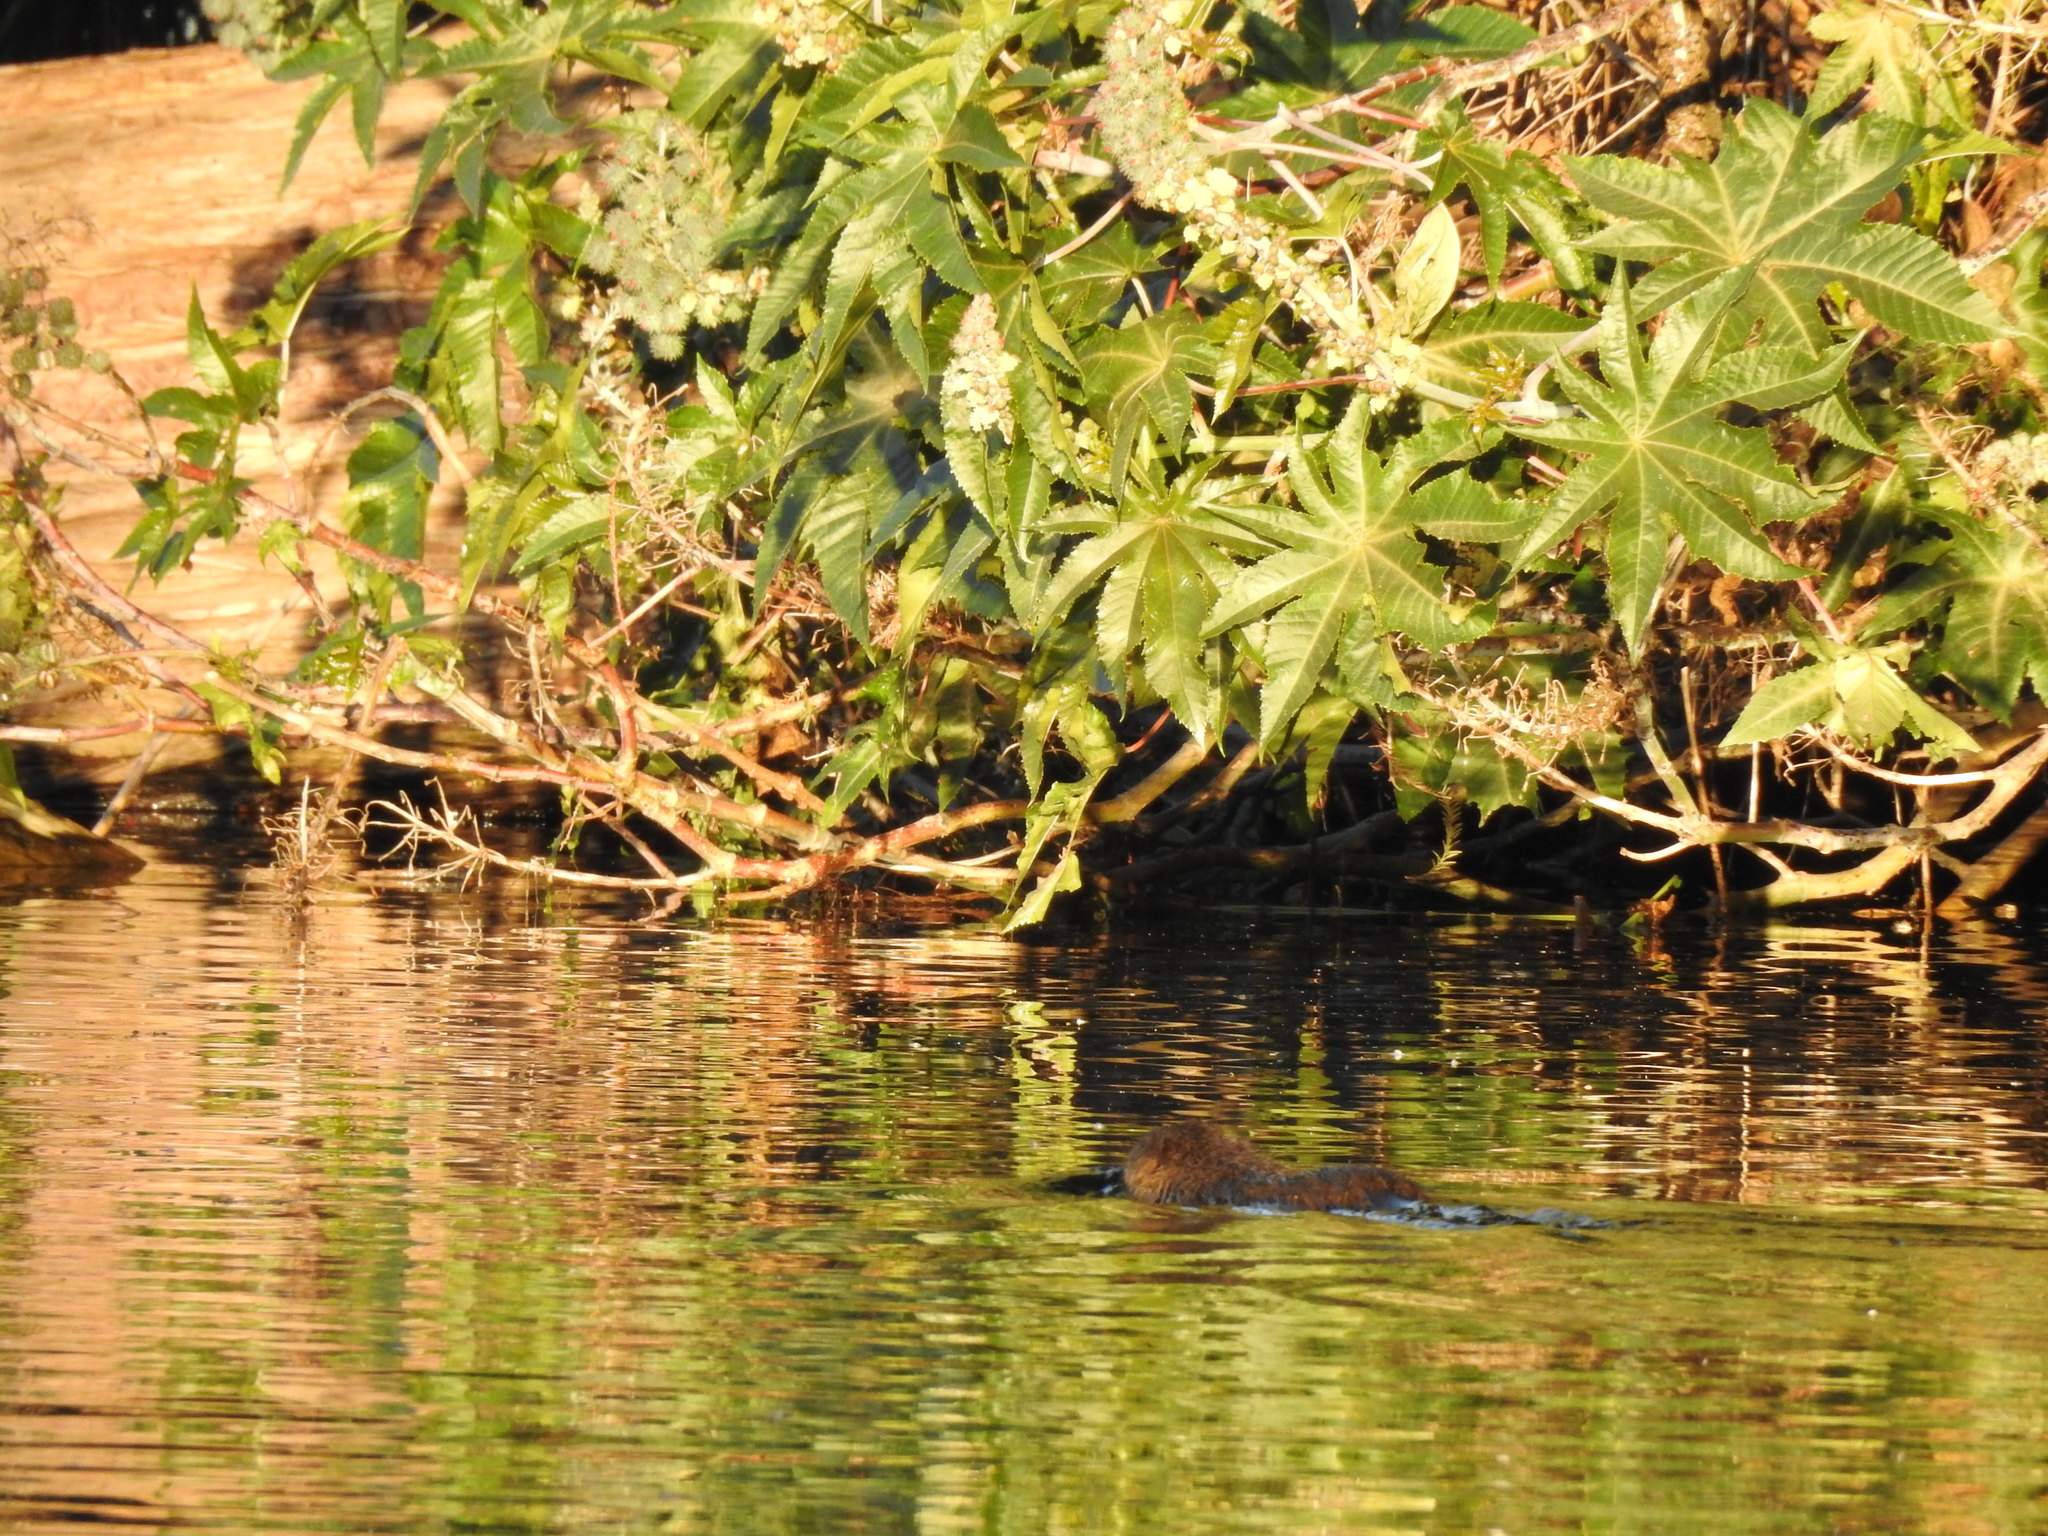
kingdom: Animalia
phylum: Chordata
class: Mammalia
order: Rodentia
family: Myocastoridae
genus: Myocastor
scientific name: Myocastor coypus
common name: Coypu
